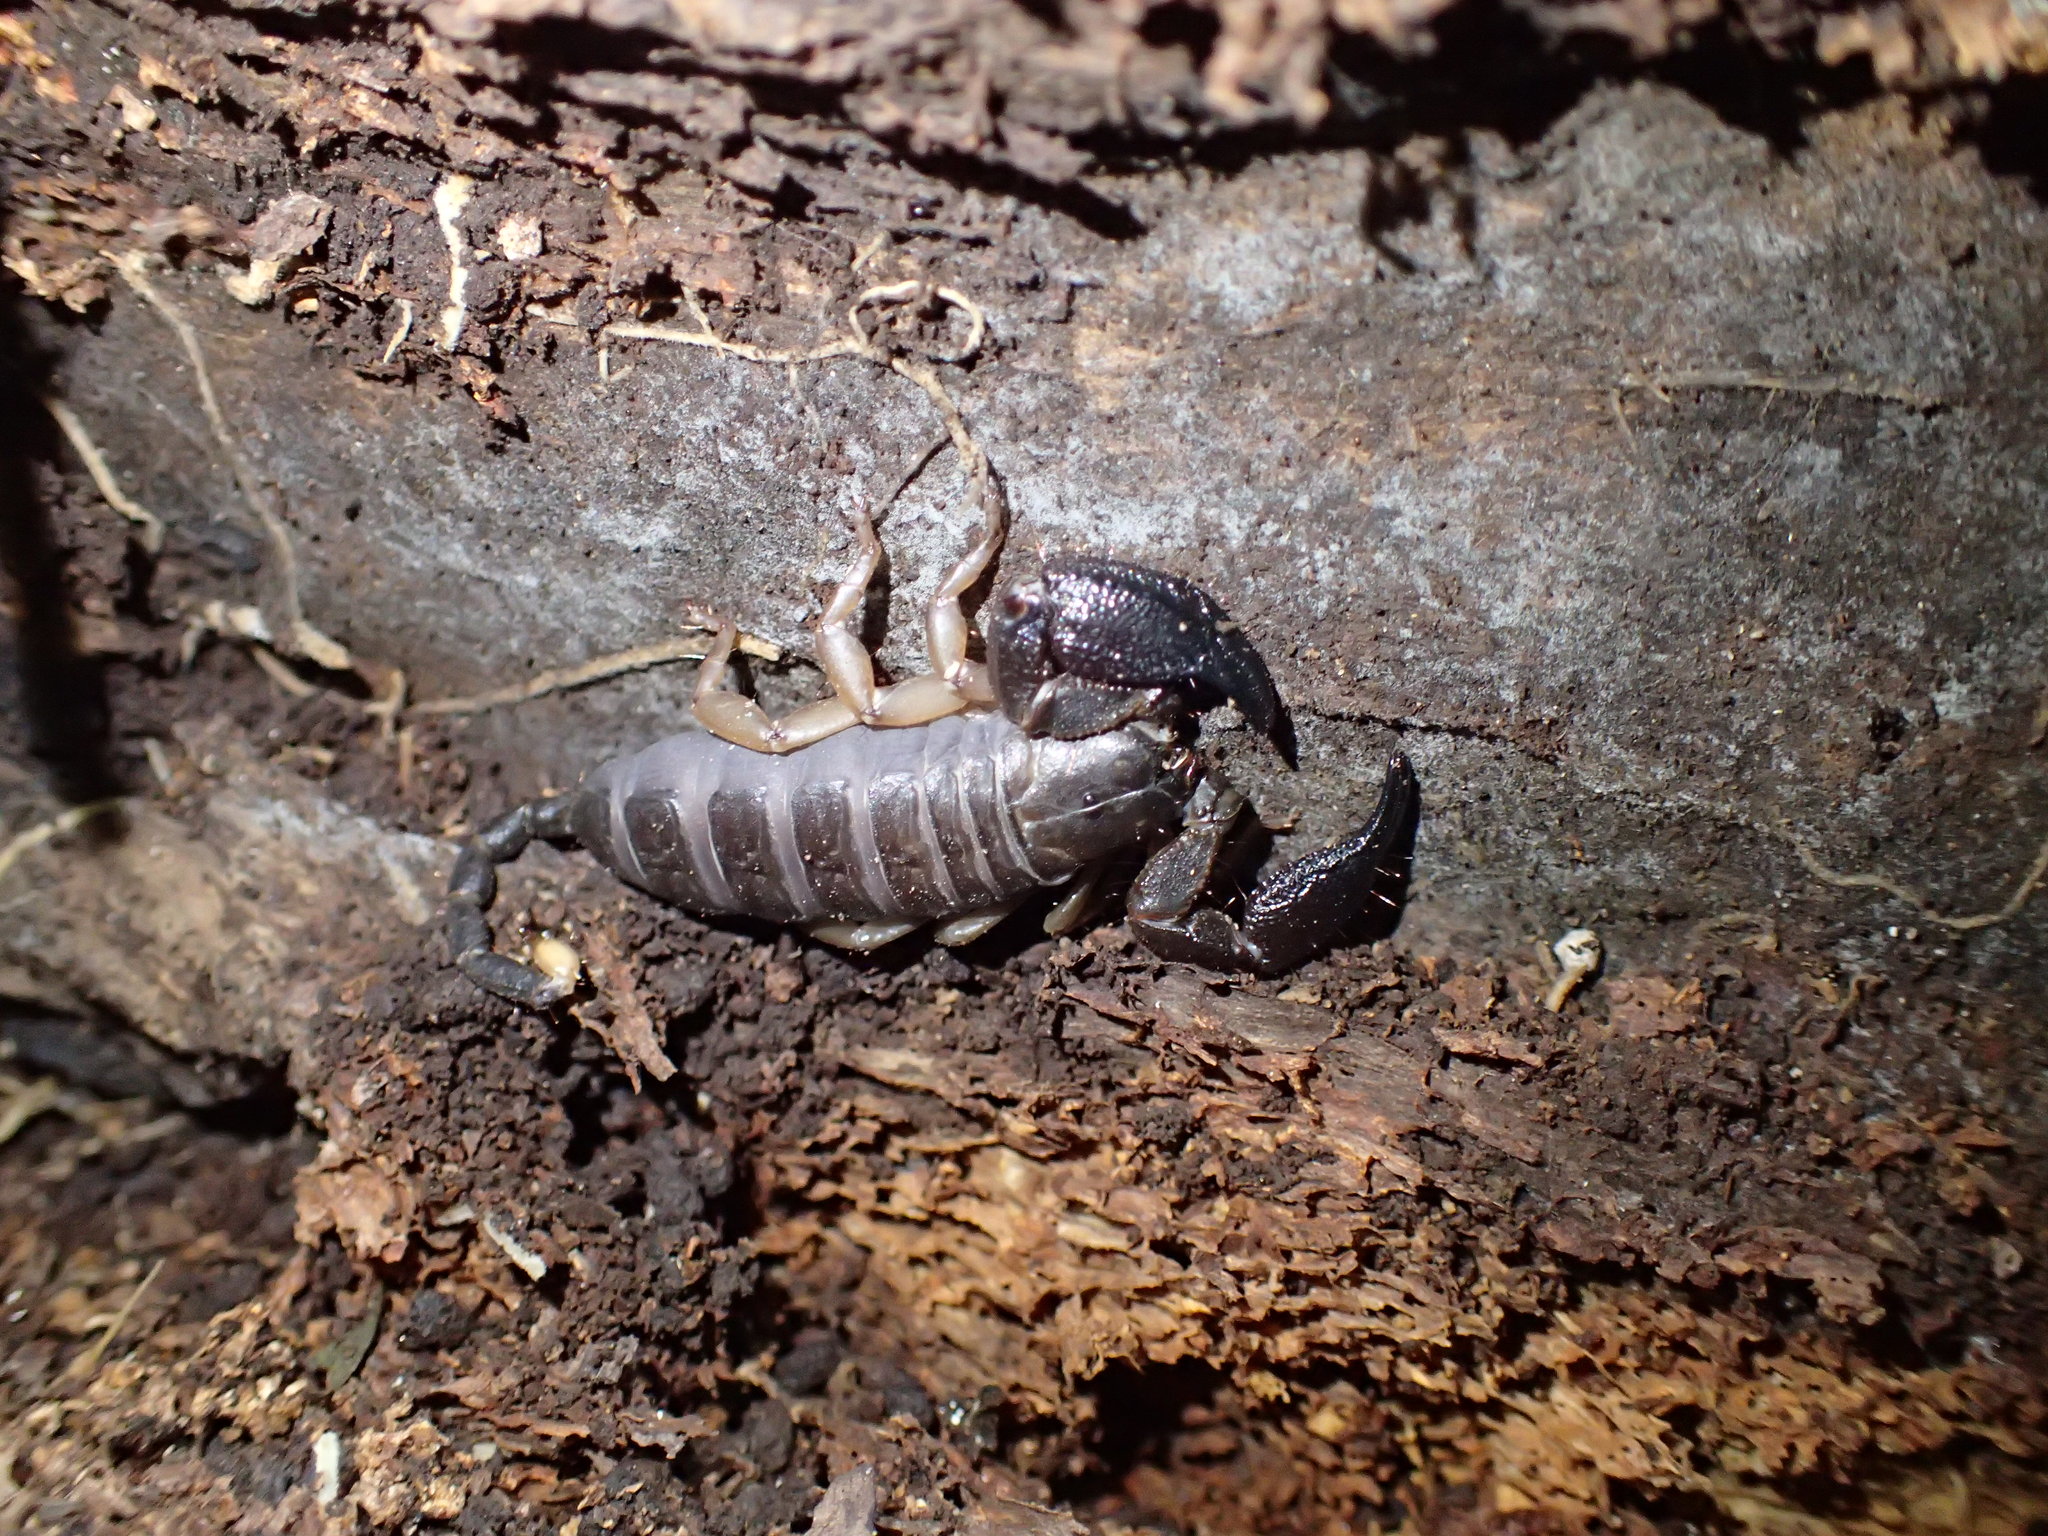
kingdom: Animalia
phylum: Arthropoda
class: Arachnida
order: Scorpiones
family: Hormuridae
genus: Opisthacanthus
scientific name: Opisthacanthus validus
